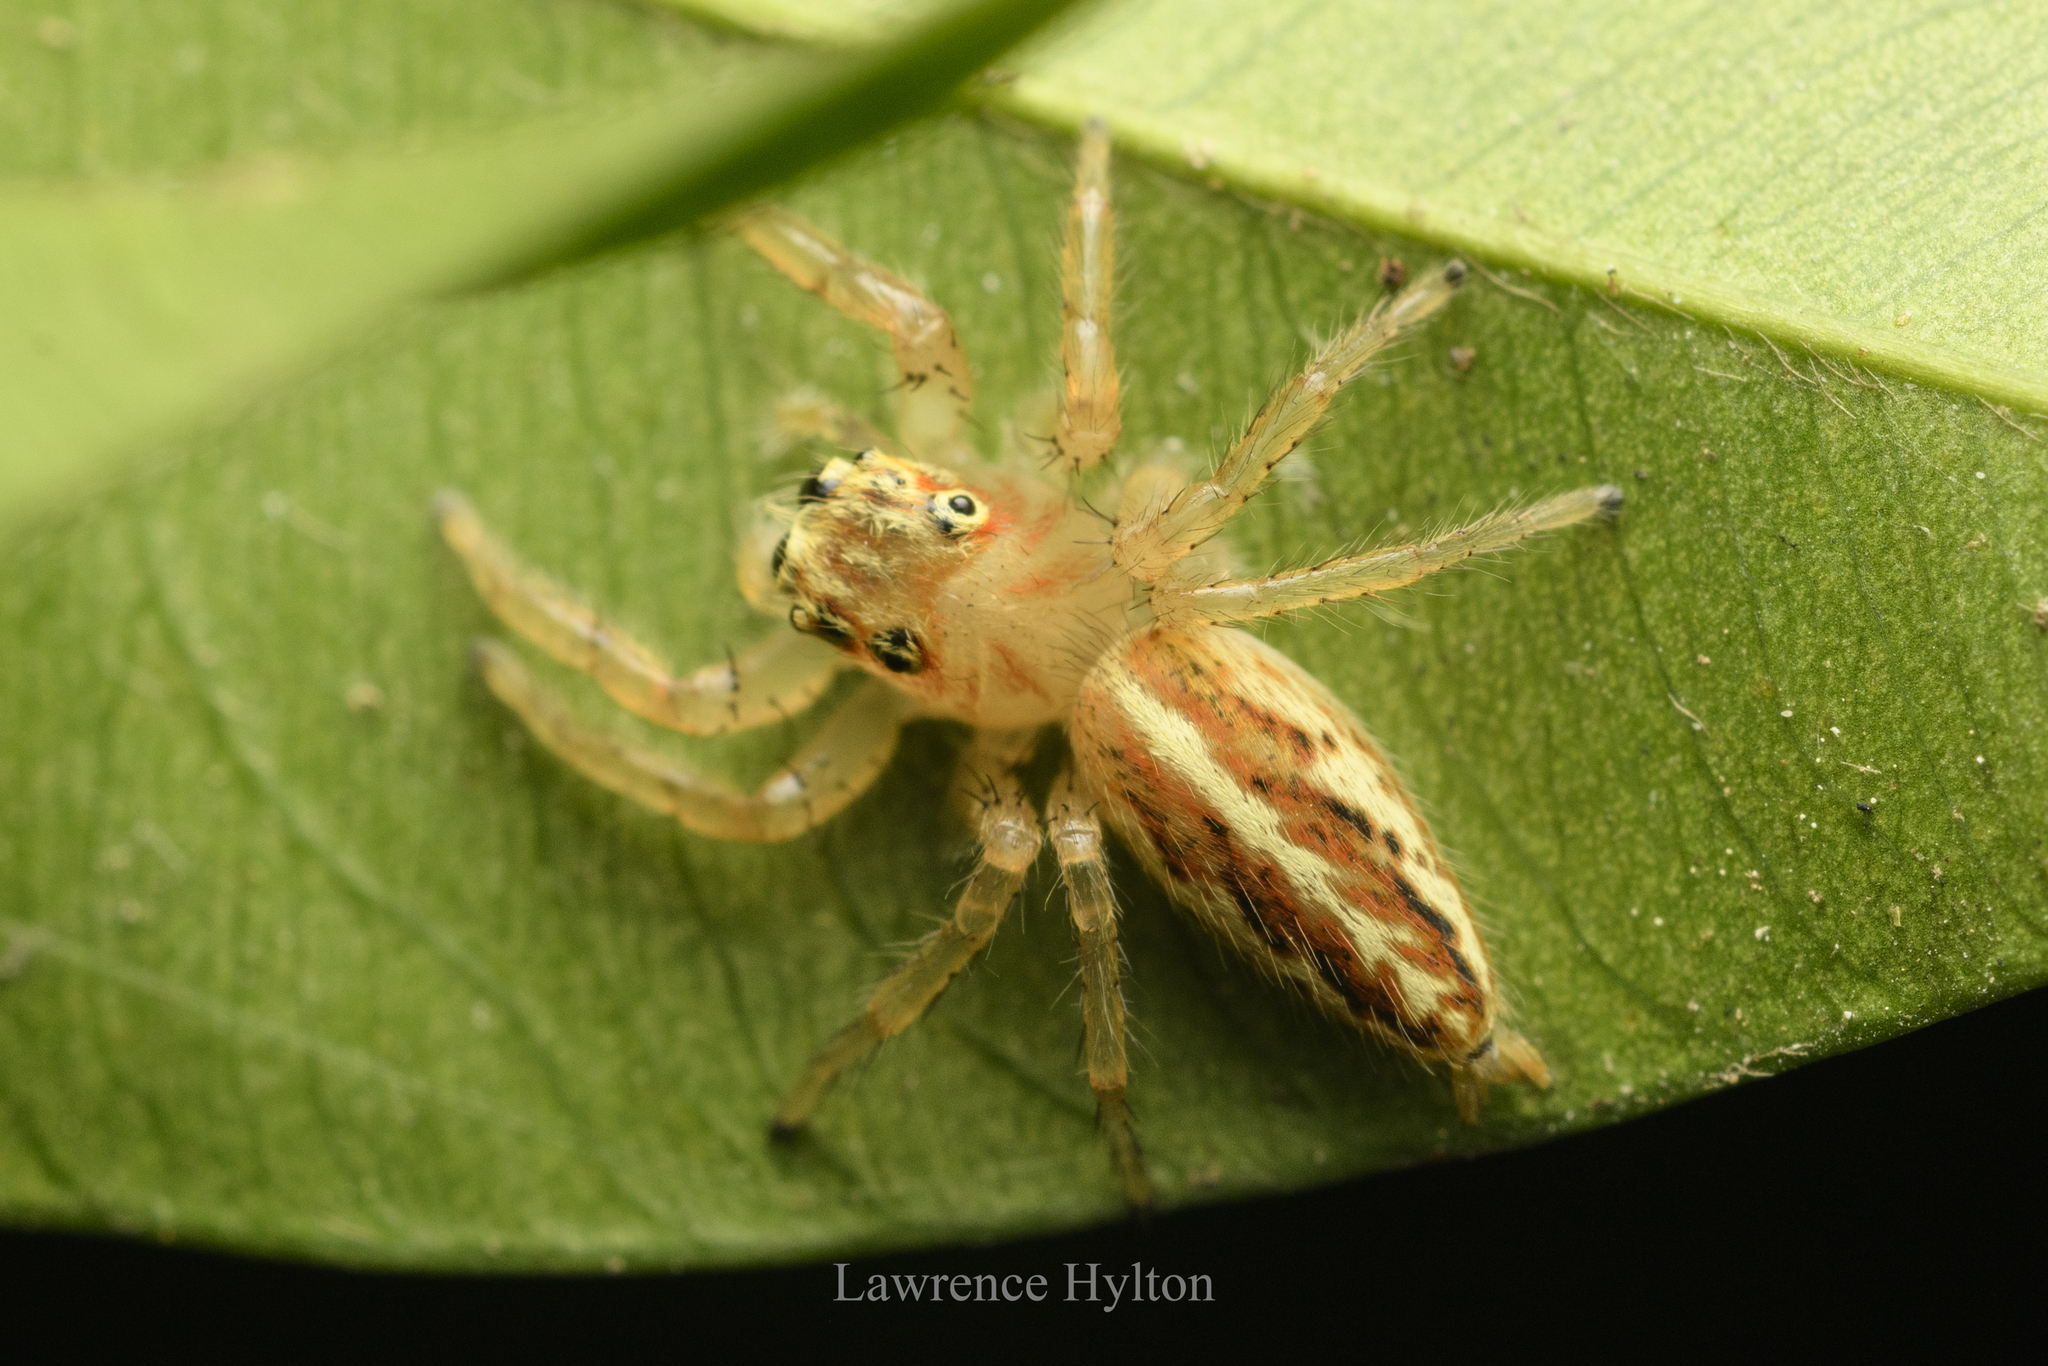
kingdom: Animalia
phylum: Arthropoda
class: Arachnida
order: Araneae
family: Salticidae
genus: Telamonia
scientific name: Telamonia caprina
